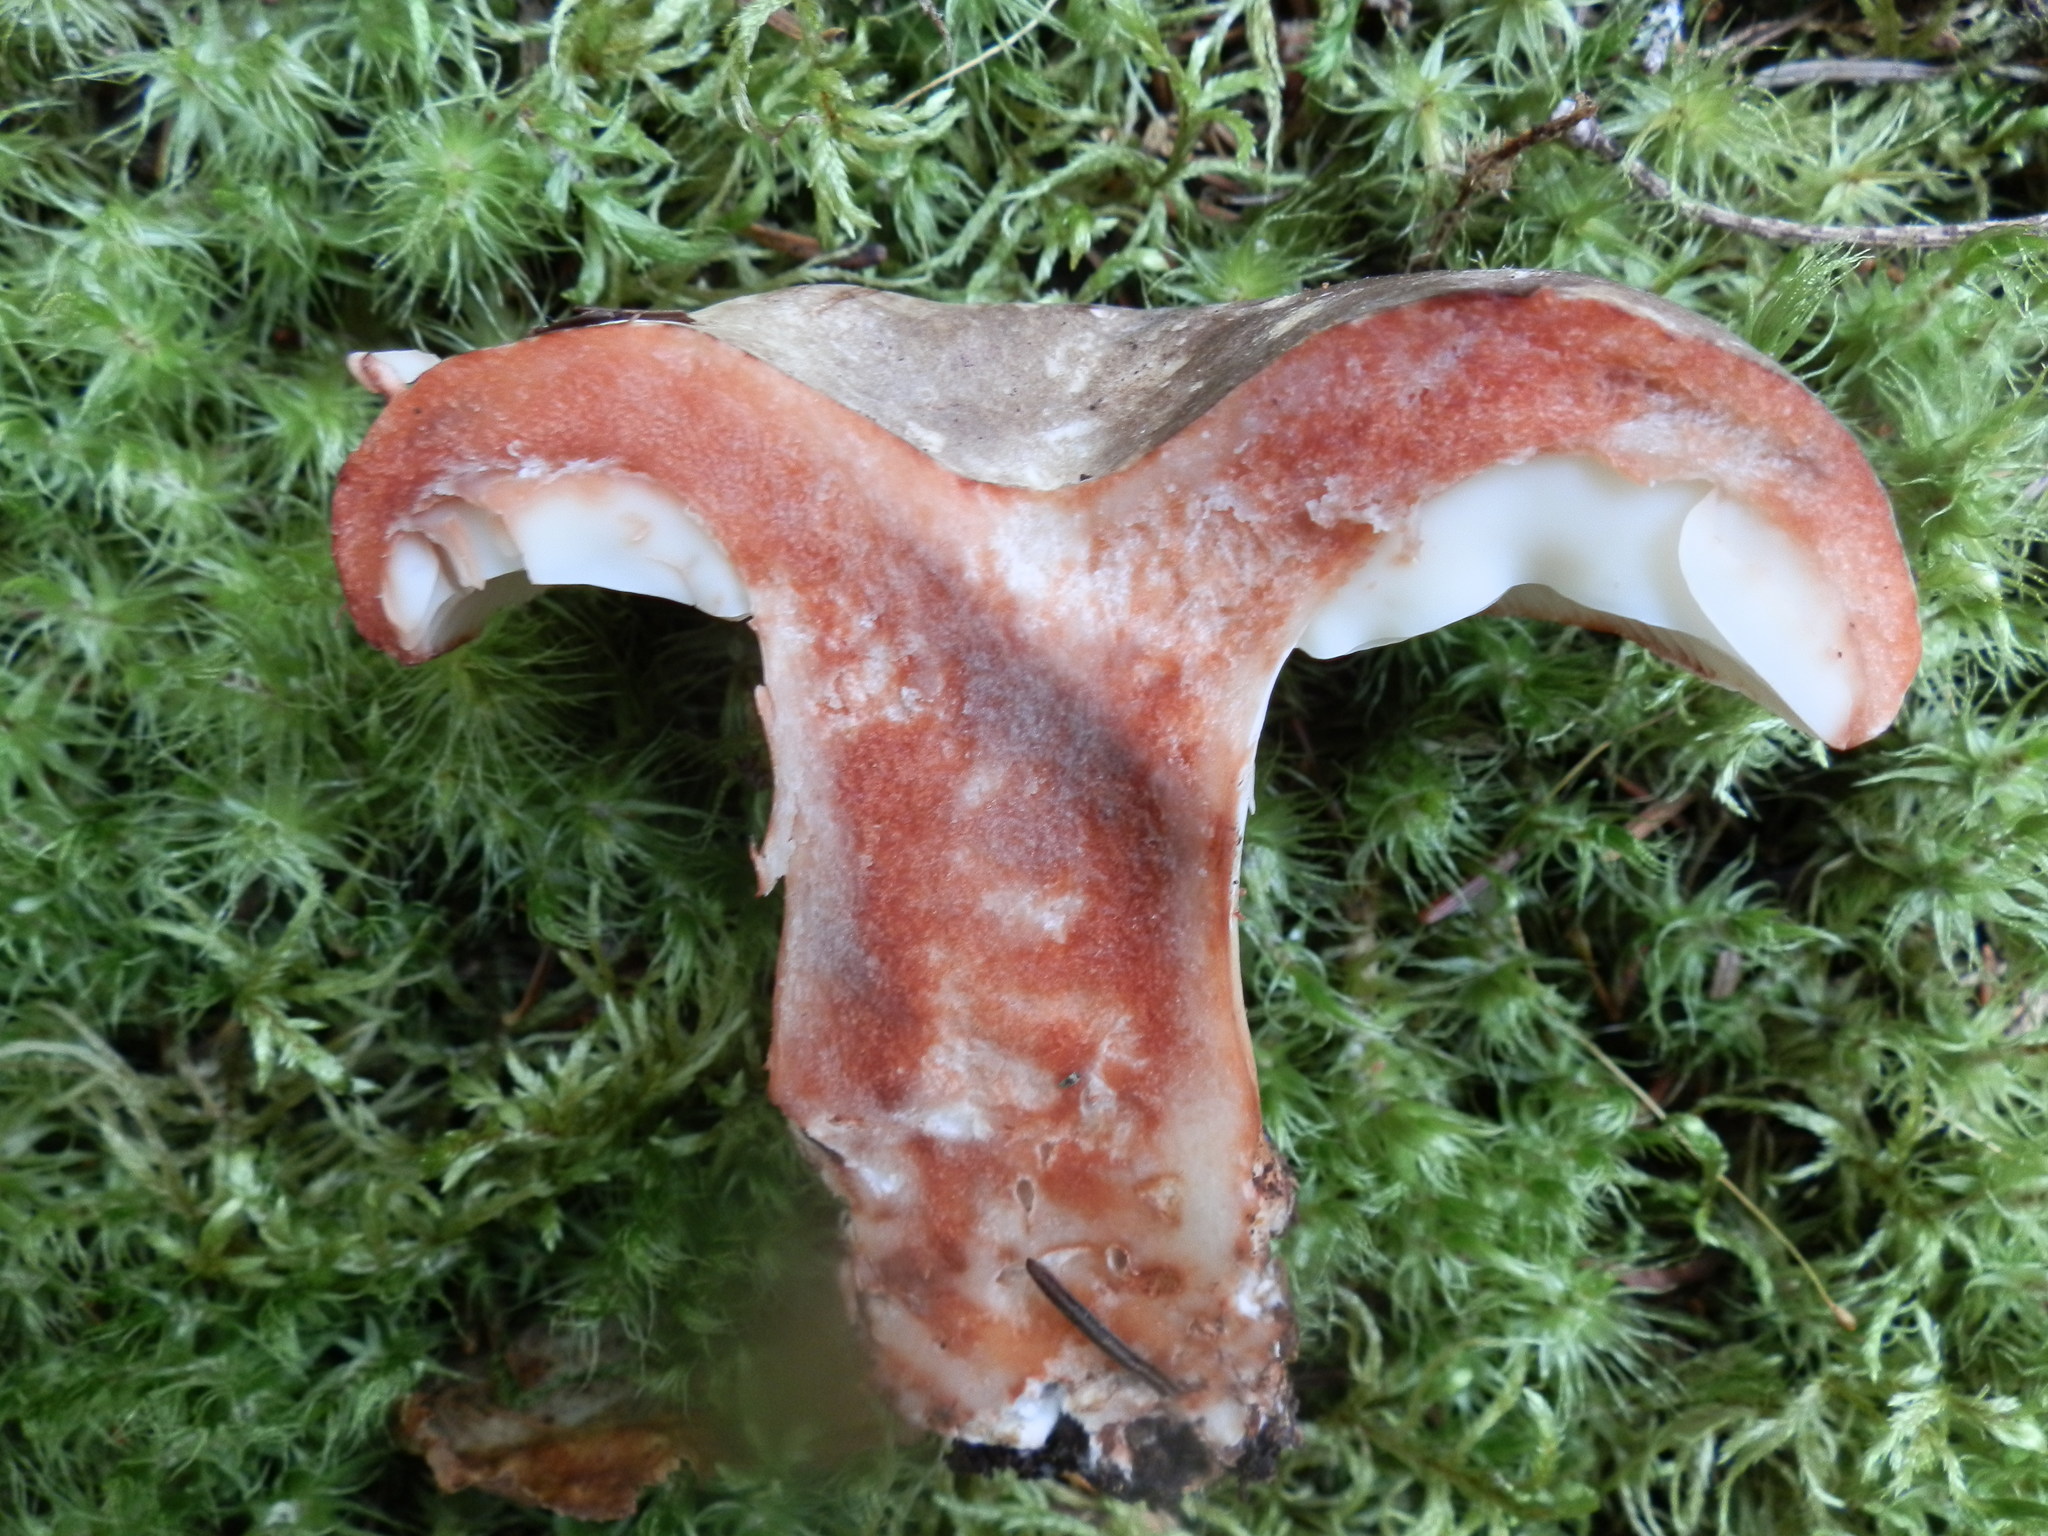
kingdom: Fungi
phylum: Basidiomycota
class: Agaricomycetes
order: Russulales
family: Russulaceae
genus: Russula
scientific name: Russula dissimulans
